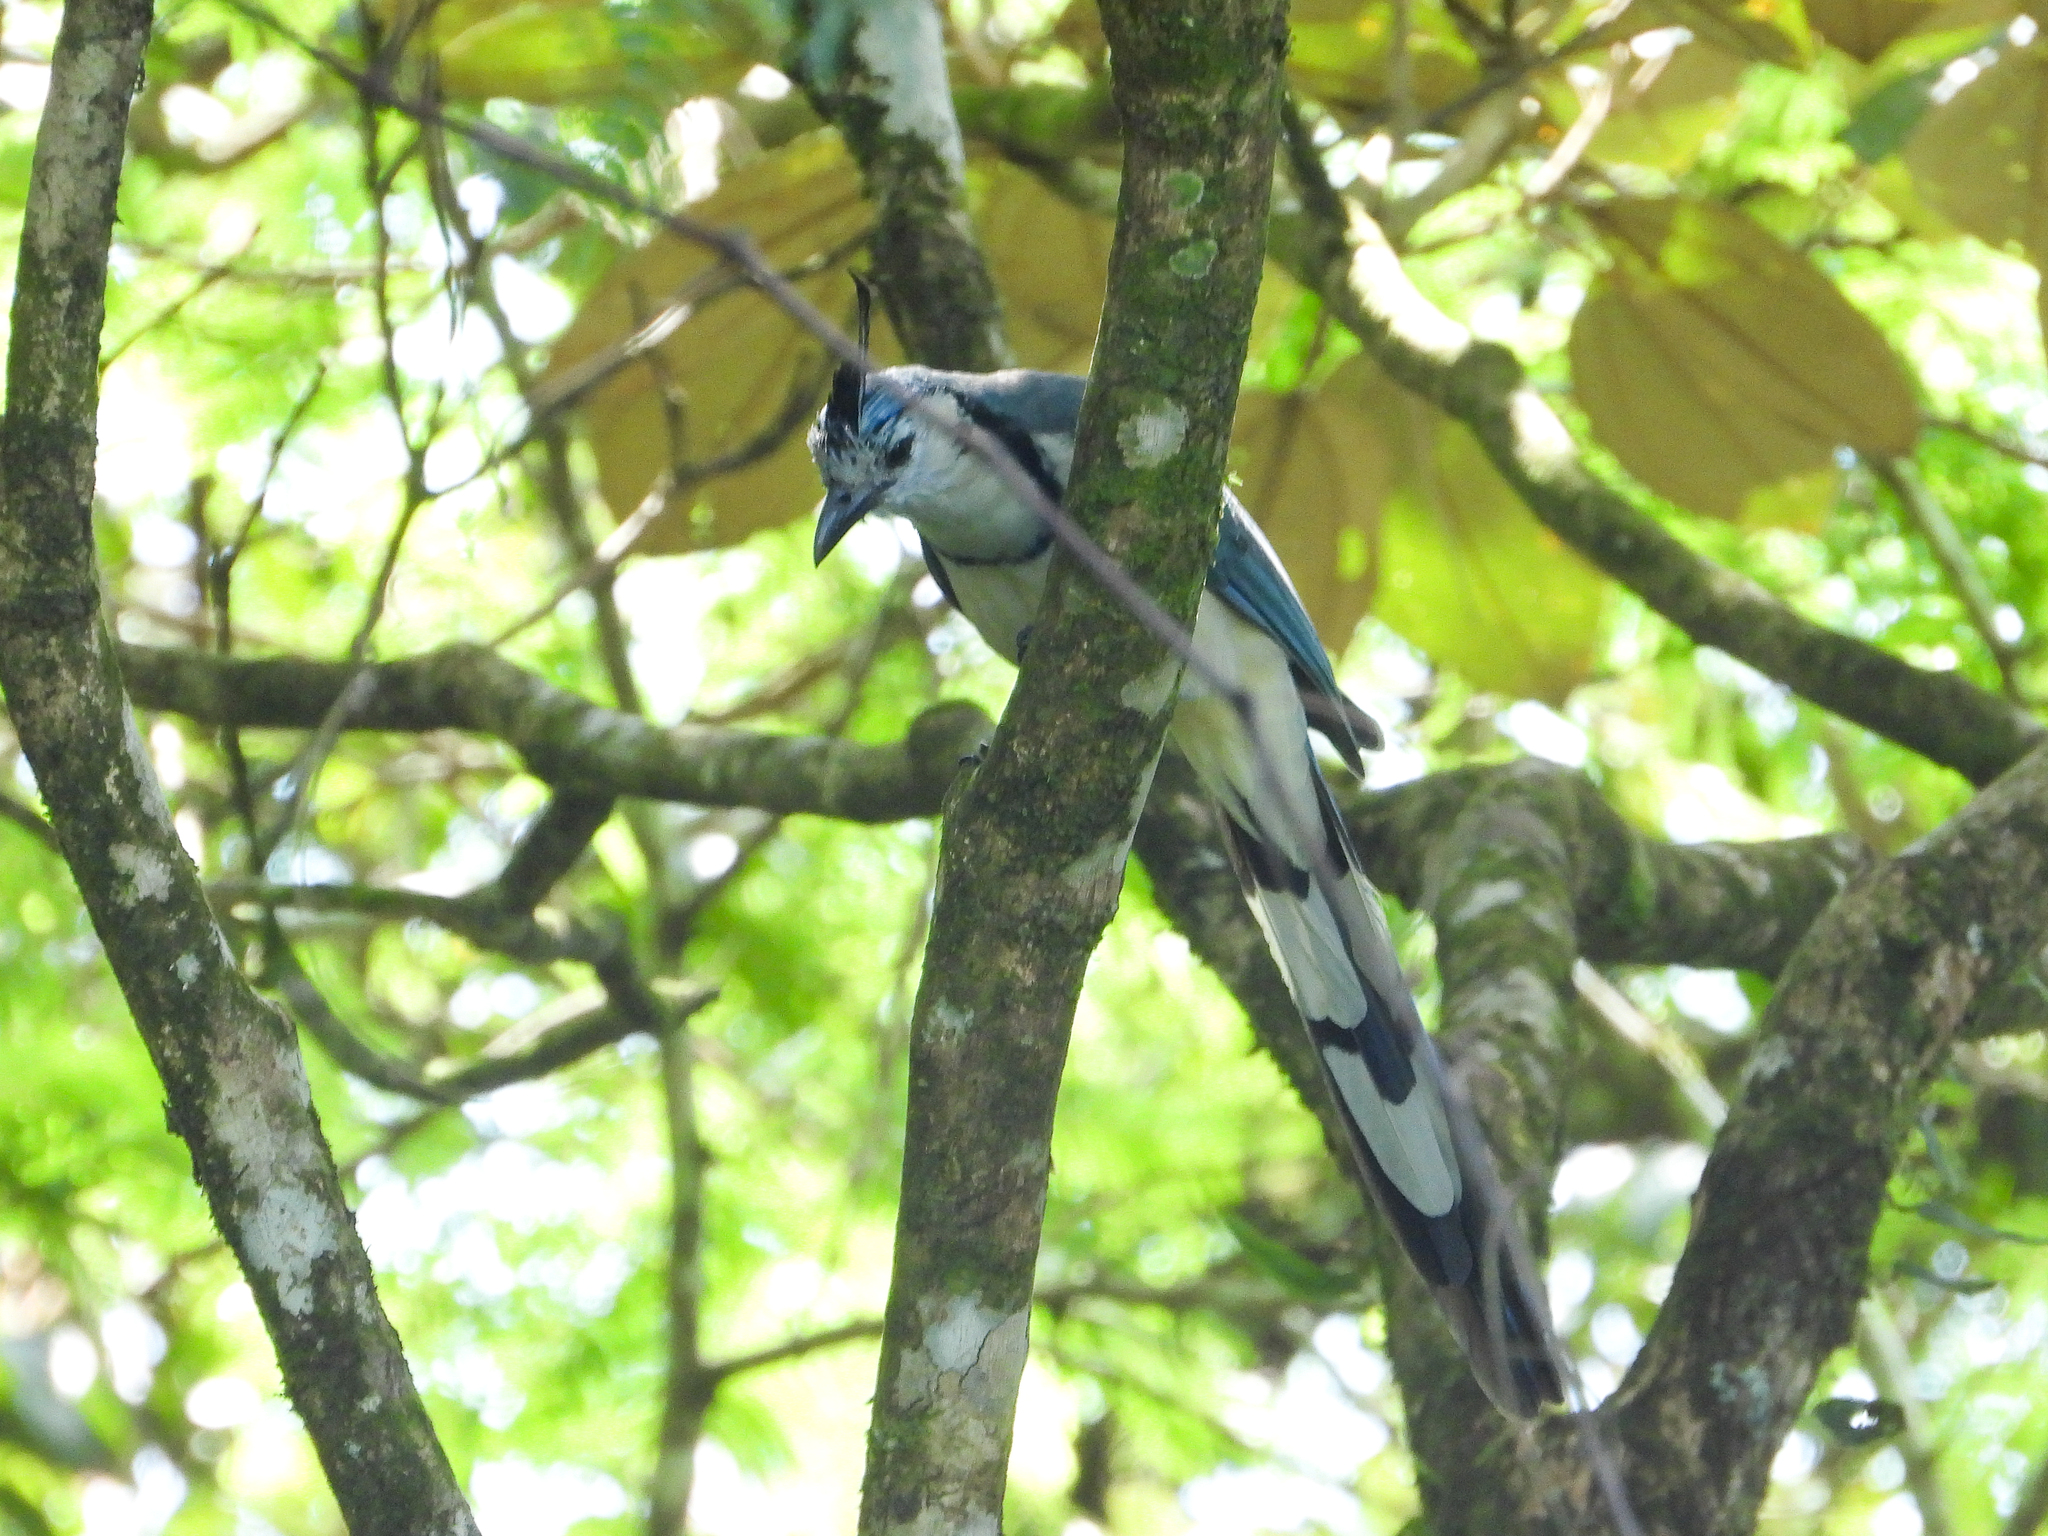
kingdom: Animalia
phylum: Chordata
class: Aves
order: Passeriformes
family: Corvidae
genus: Calocitta
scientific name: Calocitta formosa
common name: White-throated magpie-jay
